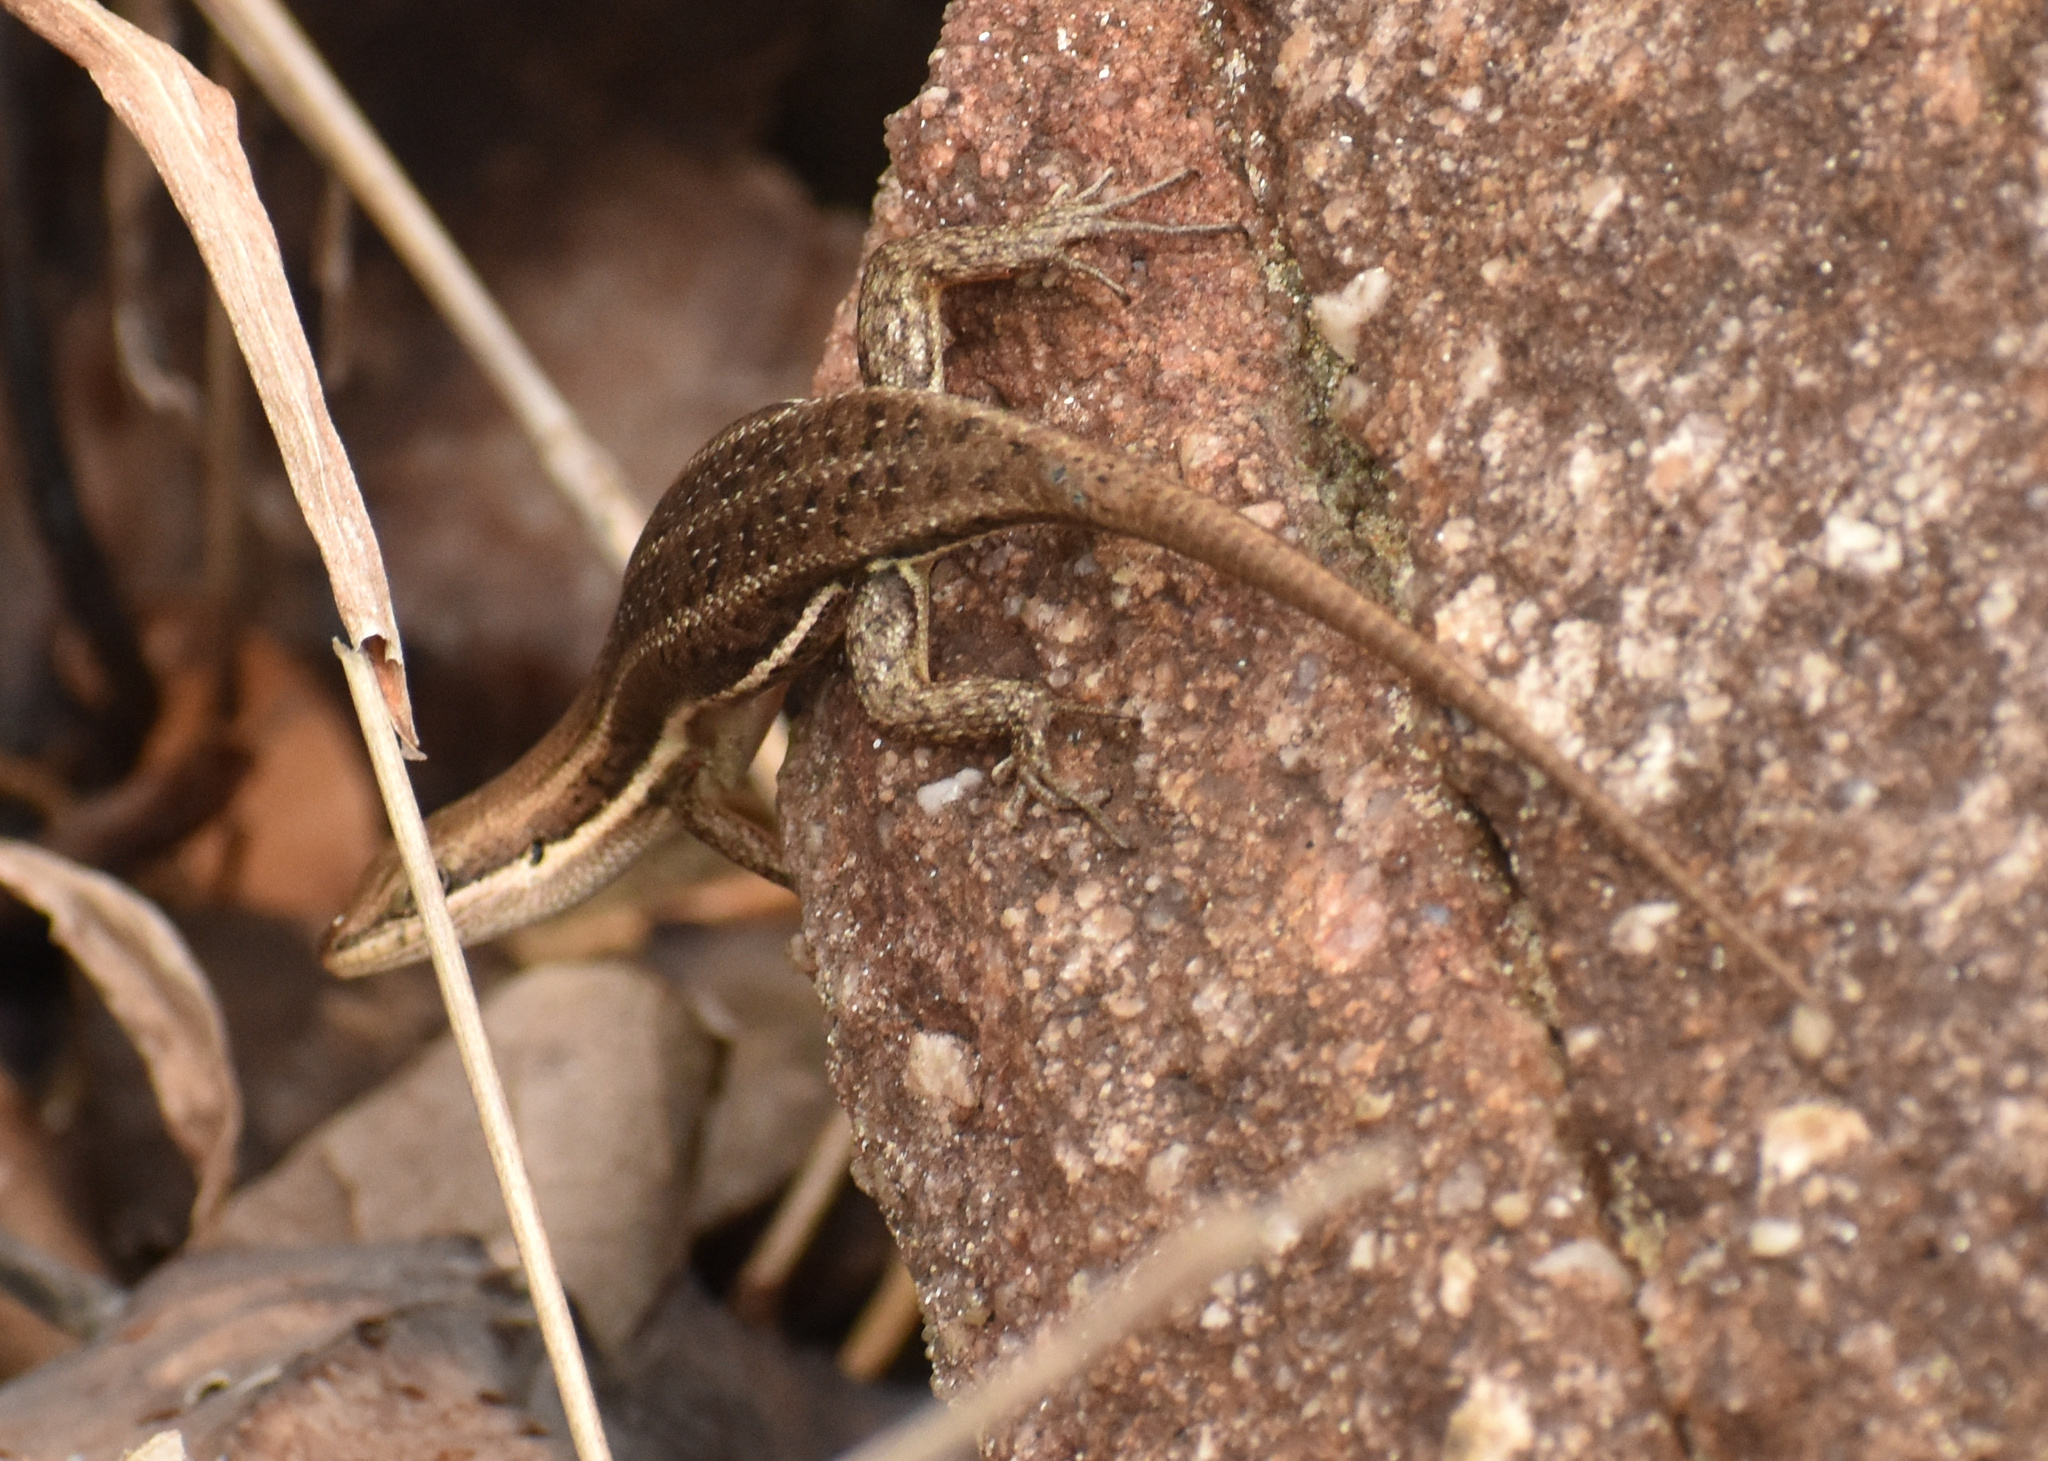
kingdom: Animalia
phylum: Chordata
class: Squamata
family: Scincidae
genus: Trachylepis
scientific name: Trachylepis varia
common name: Eastern variable skink
